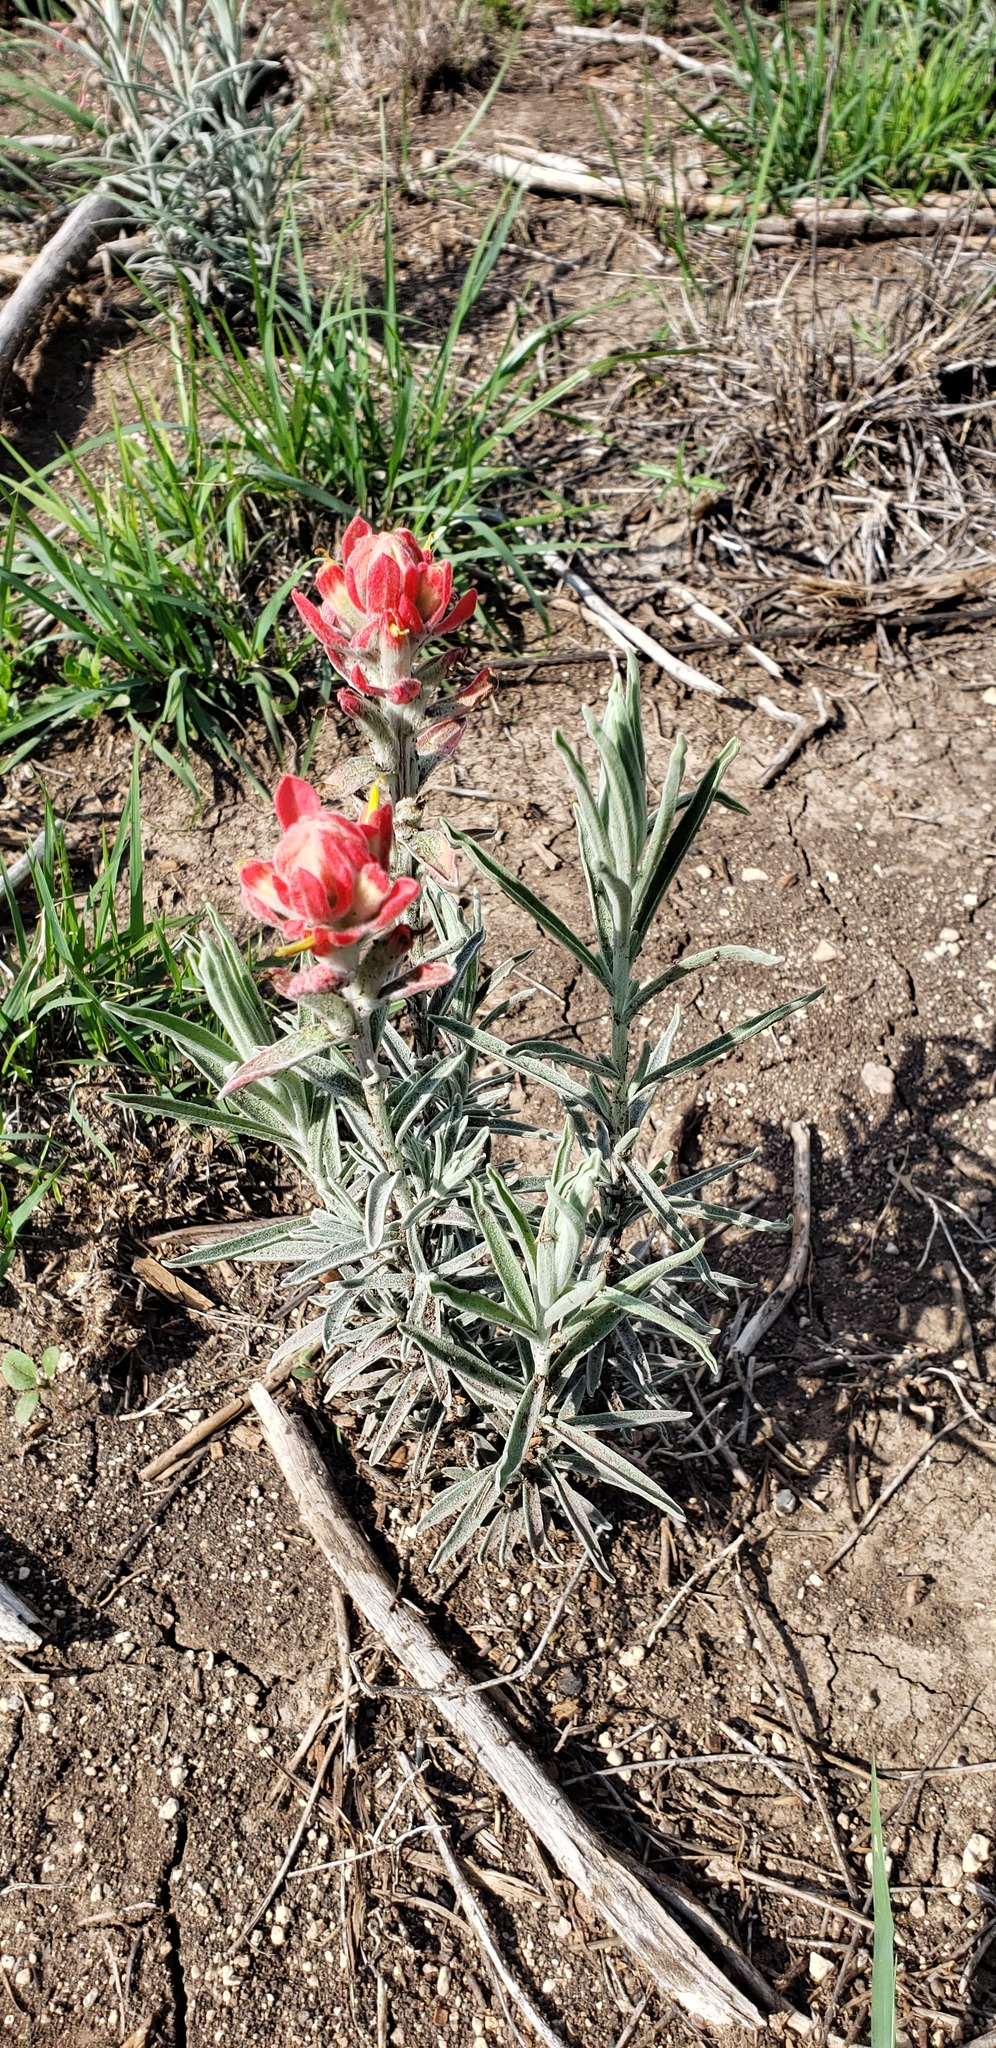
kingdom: Plantae
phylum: Tracheophyta
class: Magnoliopsida
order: Lamiales
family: Orobanchaceae
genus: Castilleja
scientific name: Castilleja lanata
